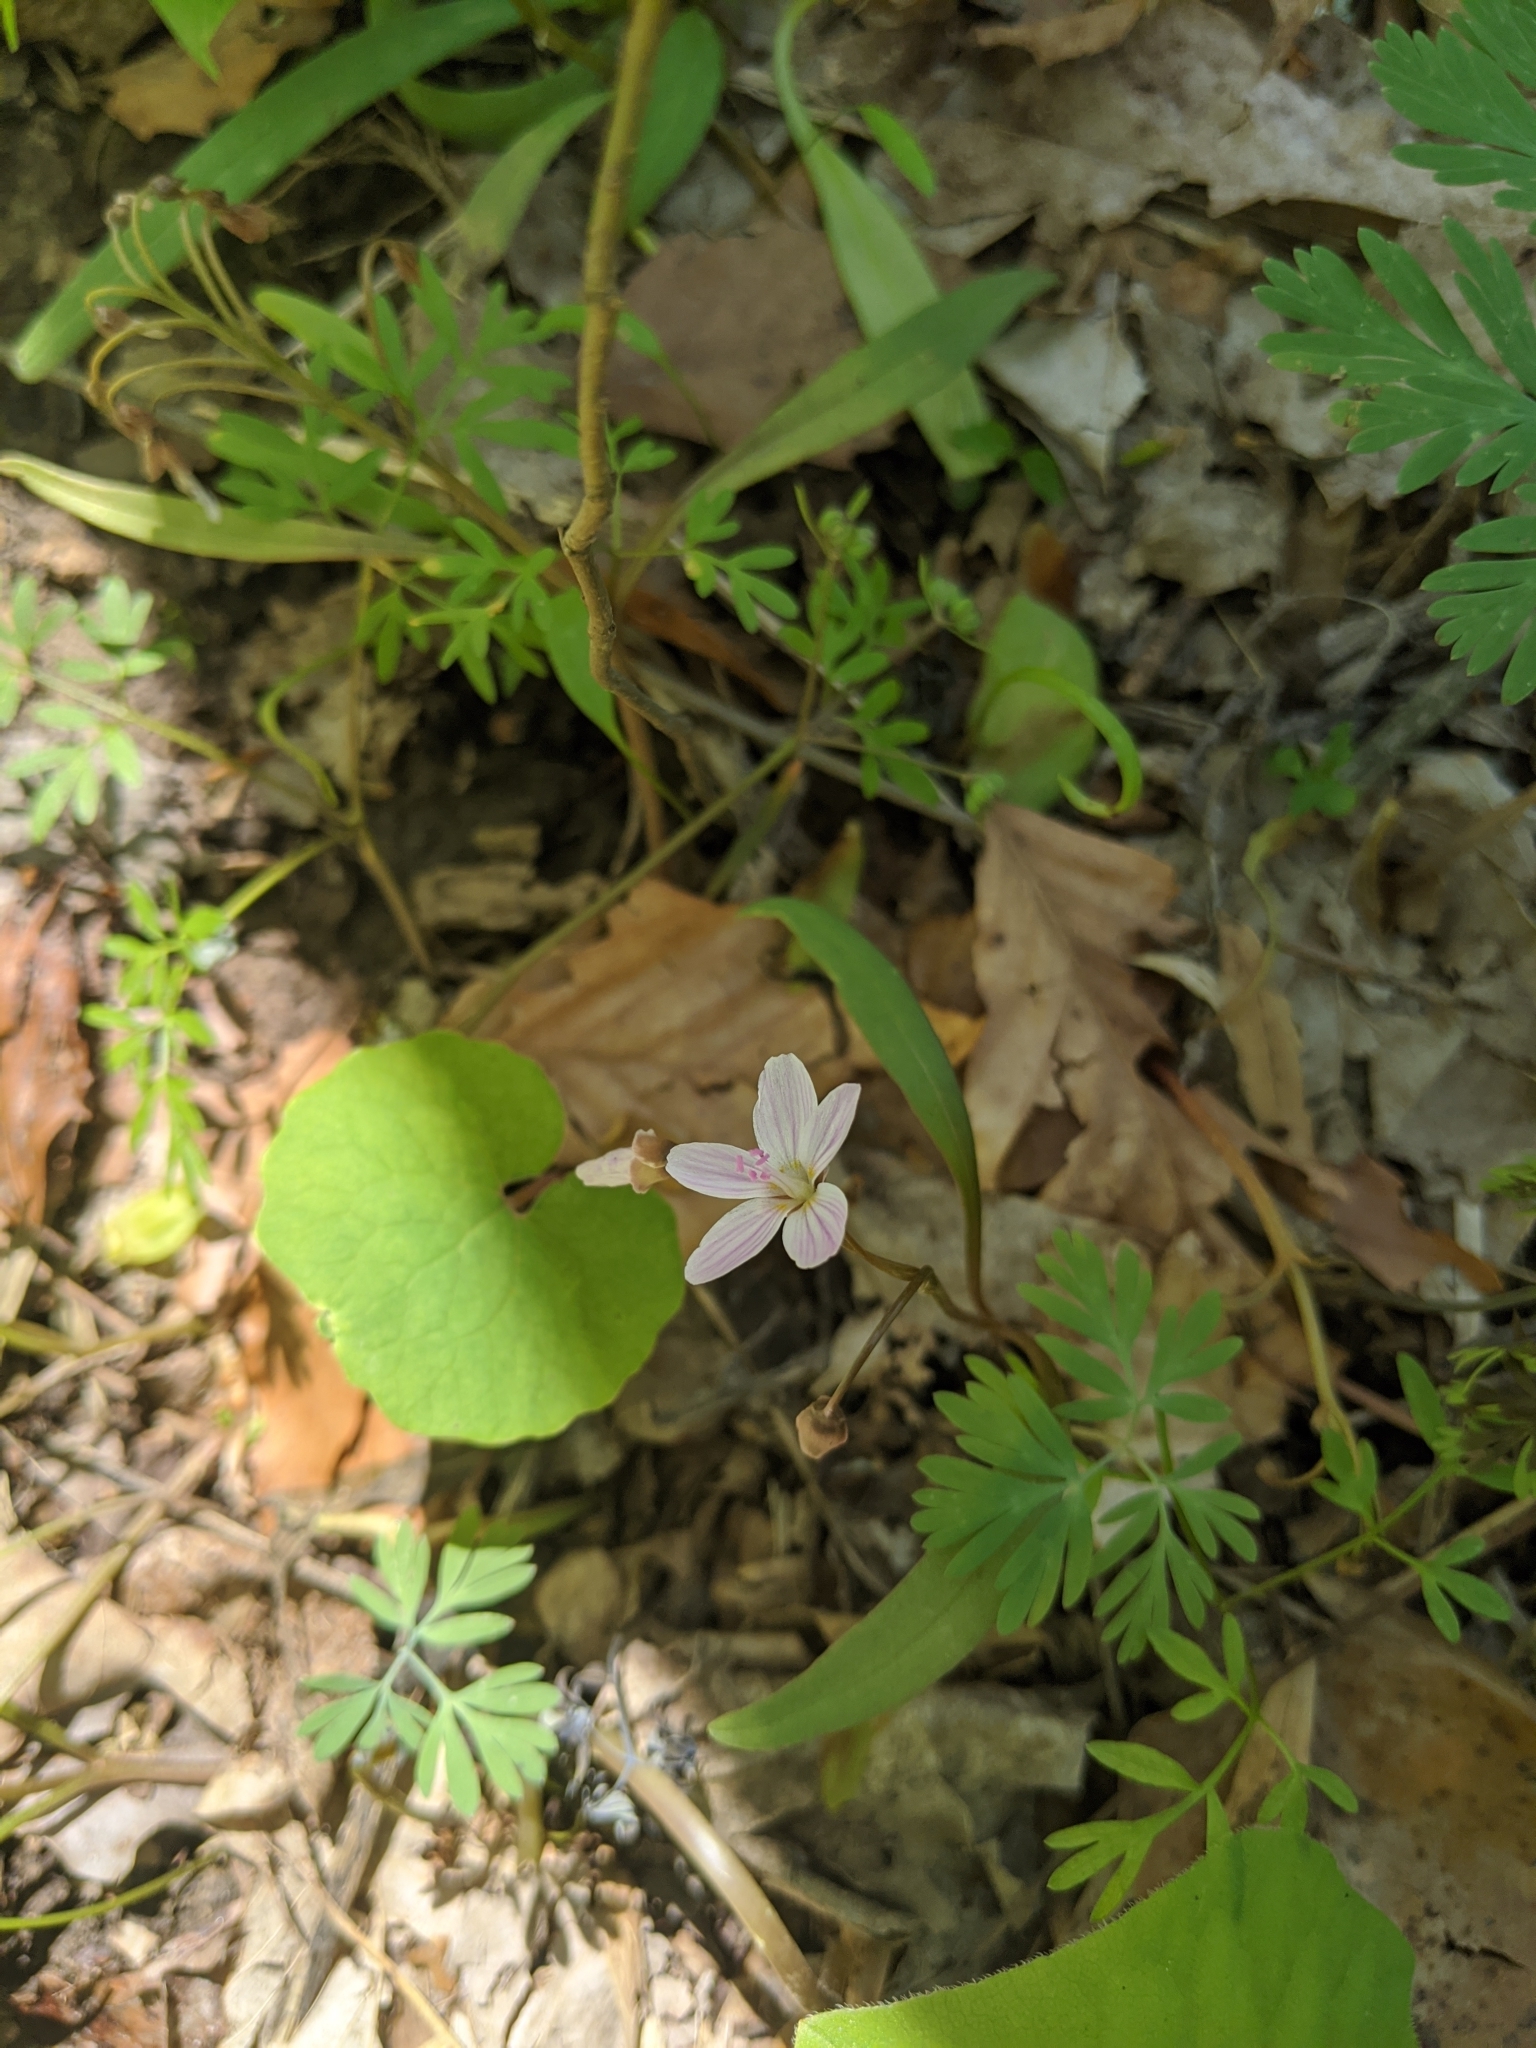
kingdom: Plantae
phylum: Tracheophyta
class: Magnoliopsida
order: Caryophyllales
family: Montiaceae
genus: Claytonia
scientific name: Claytonia virginica
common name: Virginia springbeauty
